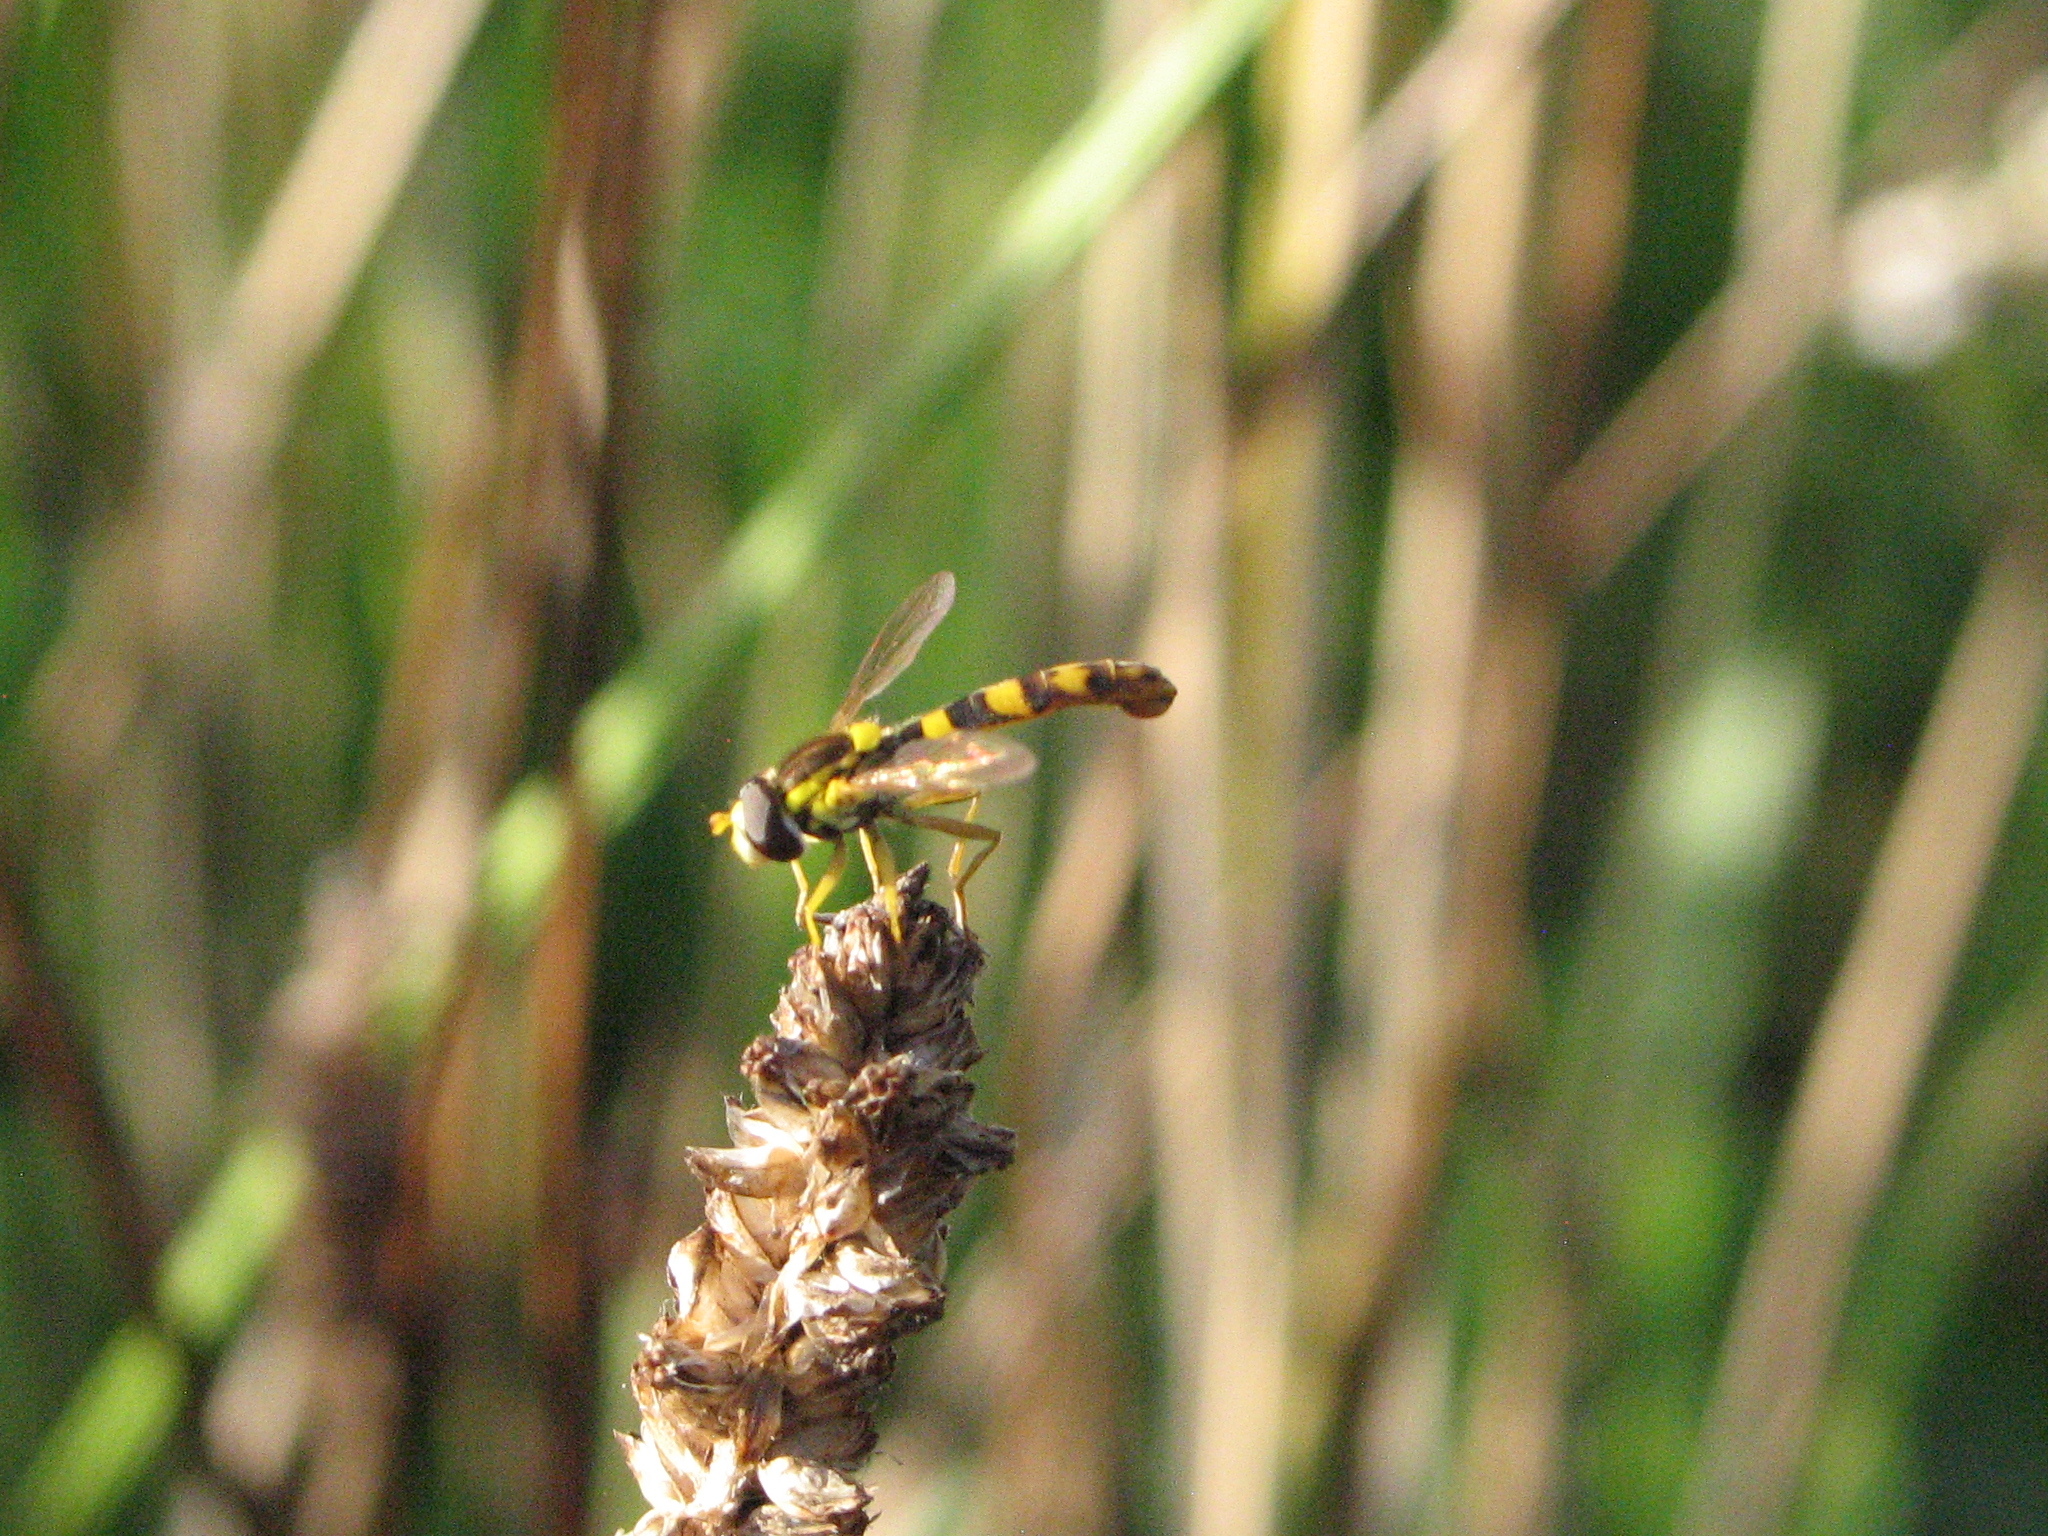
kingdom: Animalia
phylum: Arthropoda
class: Insecta
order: Diptera
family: Syrphidae
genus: Sphaerophoria
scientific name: Sphaerophoria scripta
